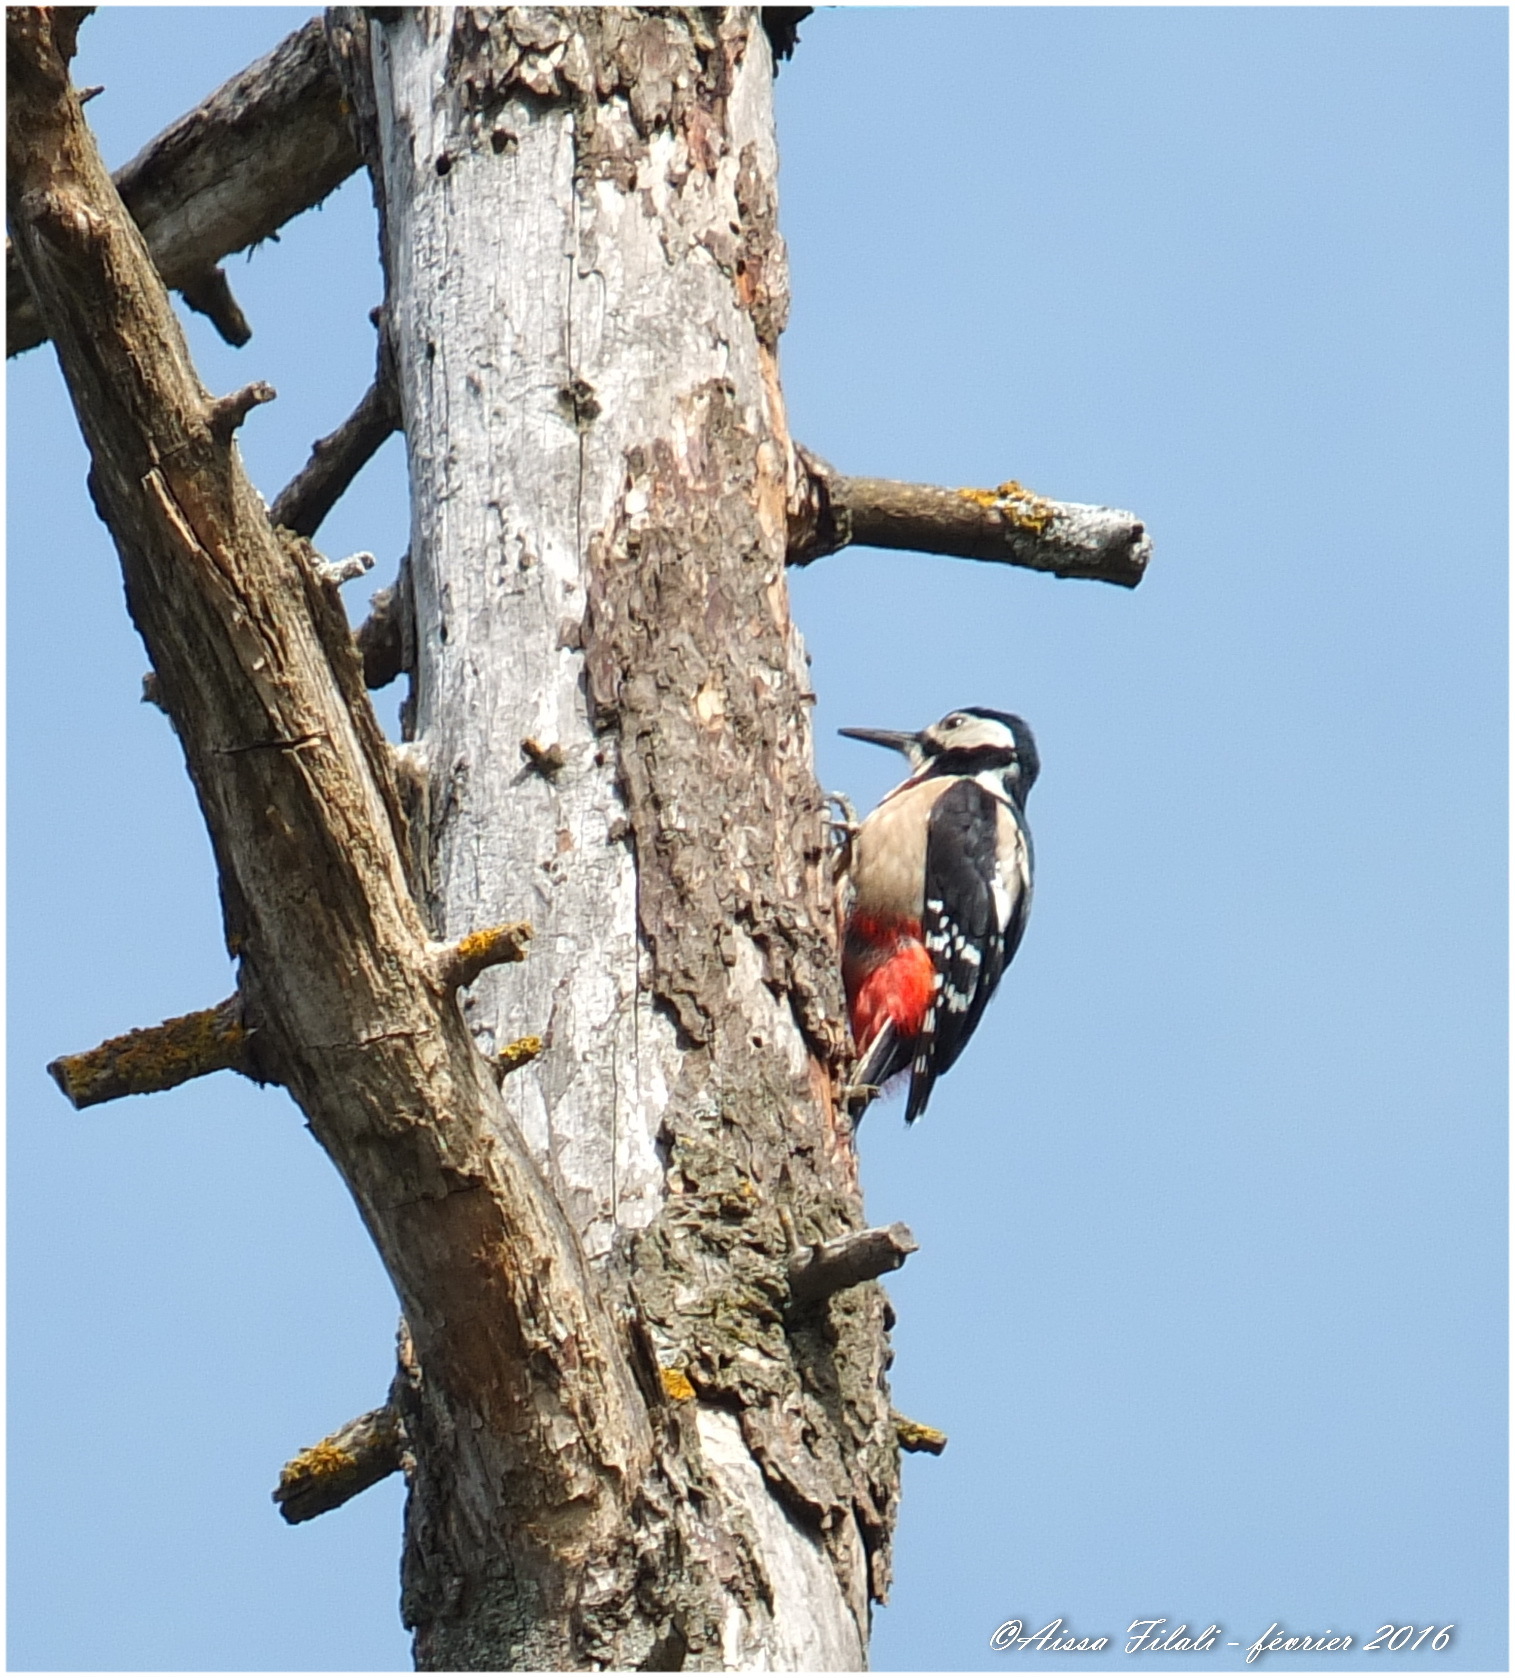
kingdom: Animalia
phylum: Chordata
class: Aves
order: Piciformes
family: Picidae
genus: Dendrocopos
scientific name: Dendrocopos major
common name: Great spotted woodpecker
